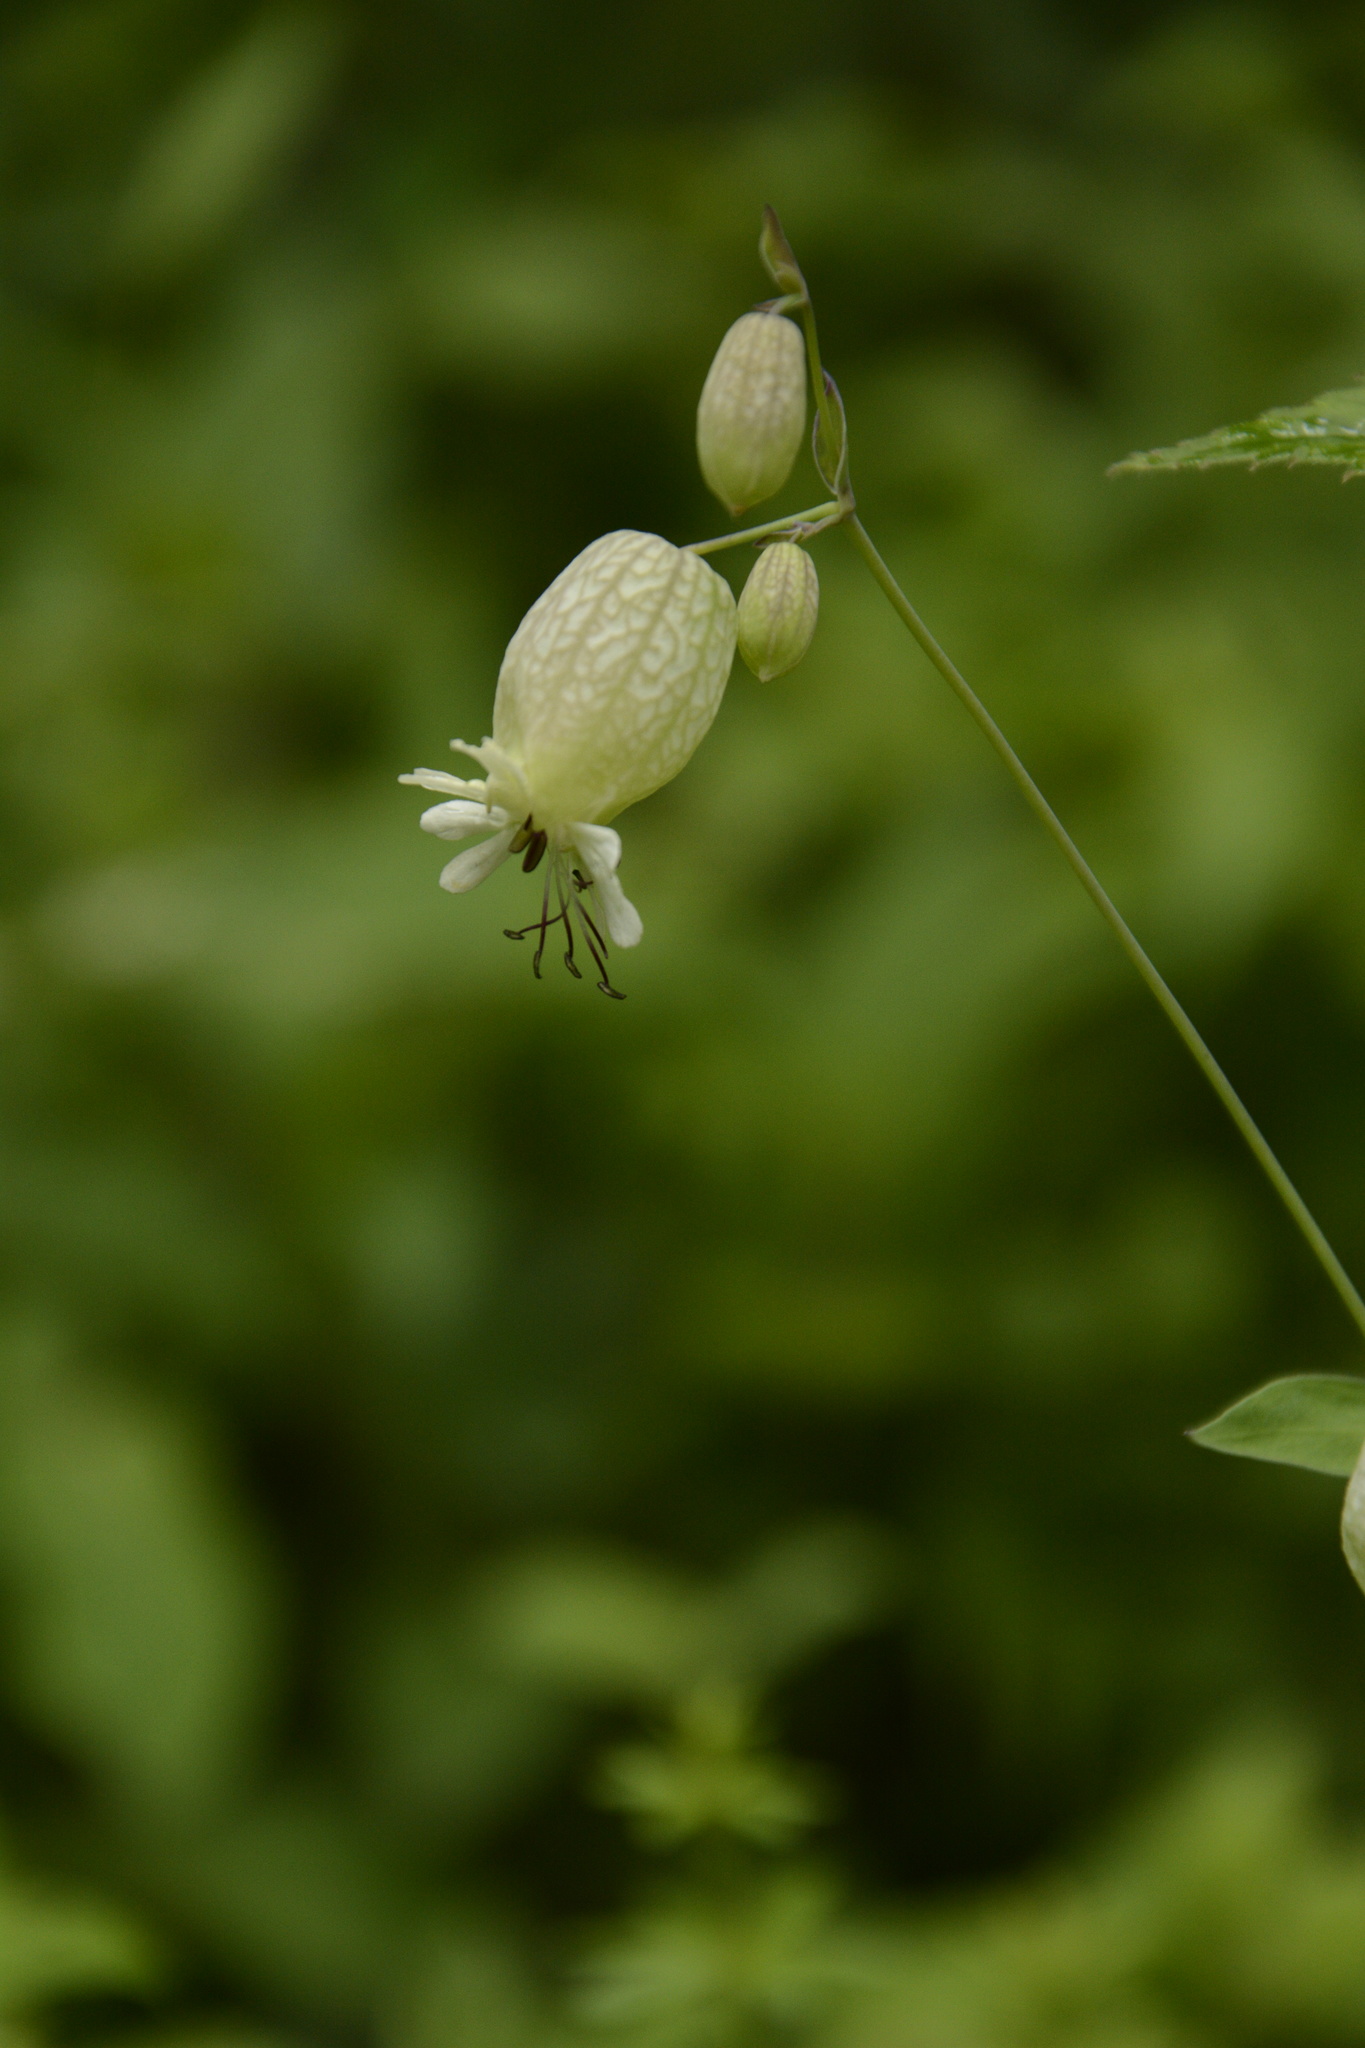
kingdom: Plantae
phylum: Tracheophyta
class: Magnoliopsida
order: Caryophyllales
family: Caryophyllaceae
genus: Silene
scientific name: Silene vulgaris
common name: Bladder campion
